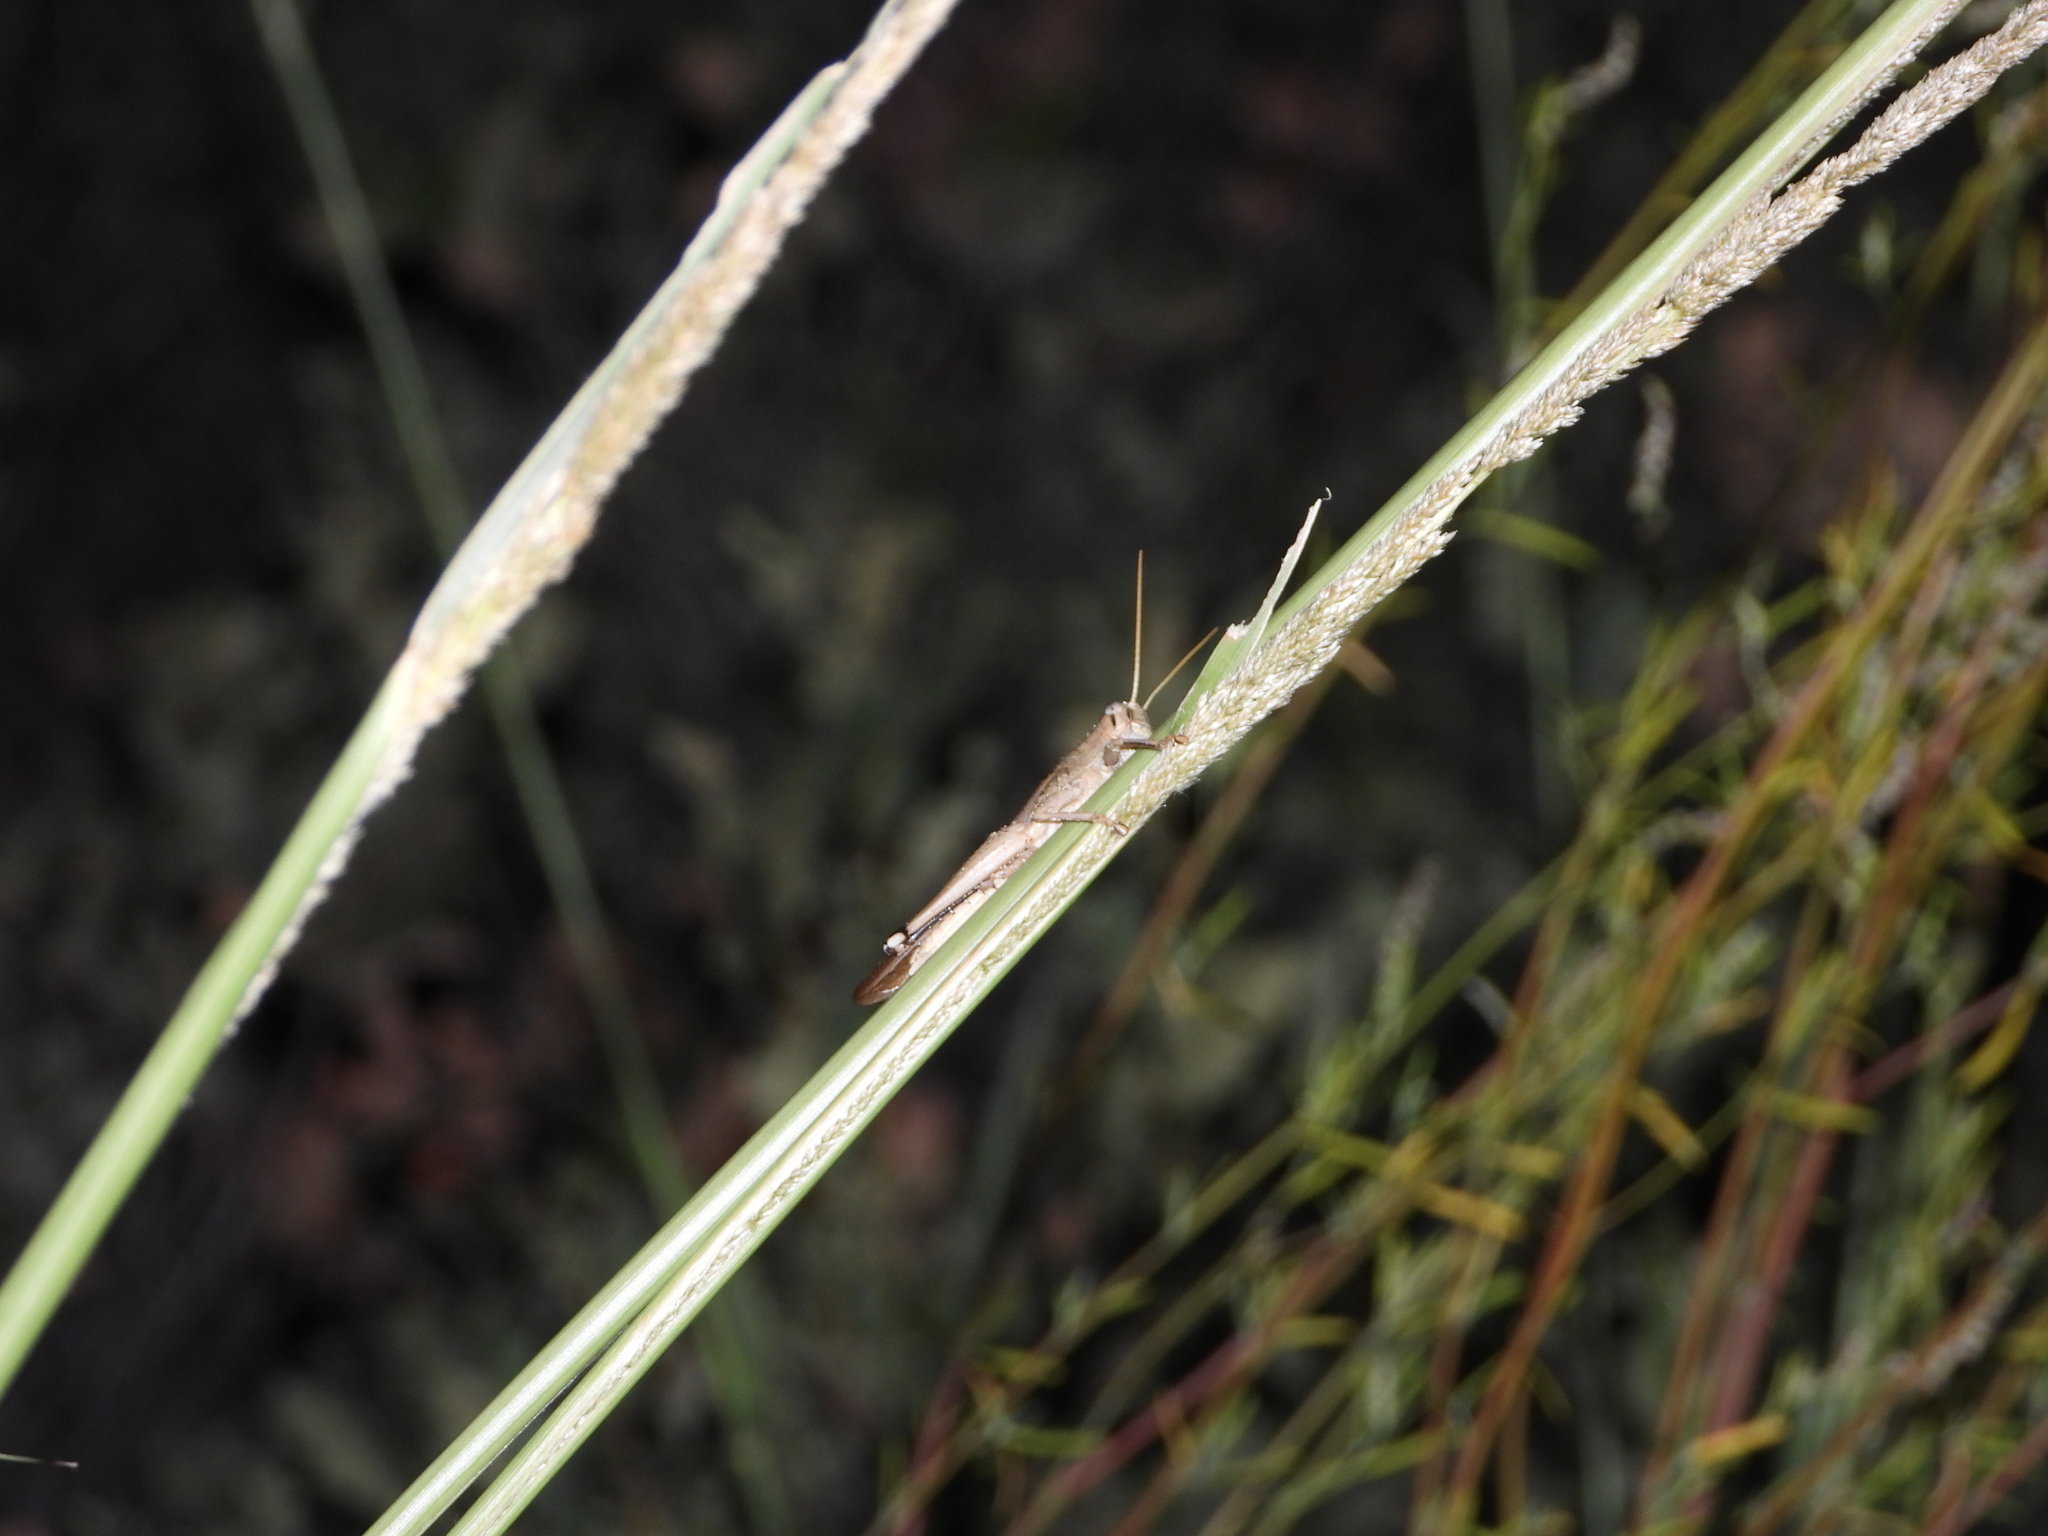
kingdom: Animalia
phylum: Arthropoda
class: Insecta
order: Orthoptera
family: Acrididae
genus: Schistocerca
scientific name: Schistocerca lineata
